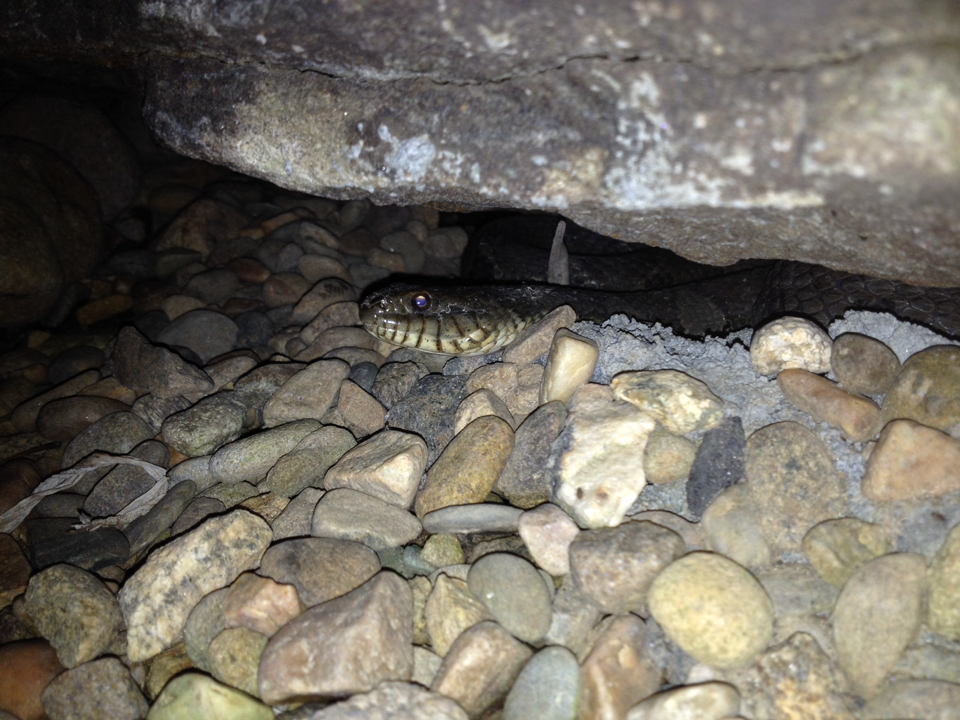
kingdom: Animalia
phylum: Chordata
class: Squamata
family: Colubridae
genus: Nerodia
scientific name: Nerodia sipedon
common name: Northern water snake
